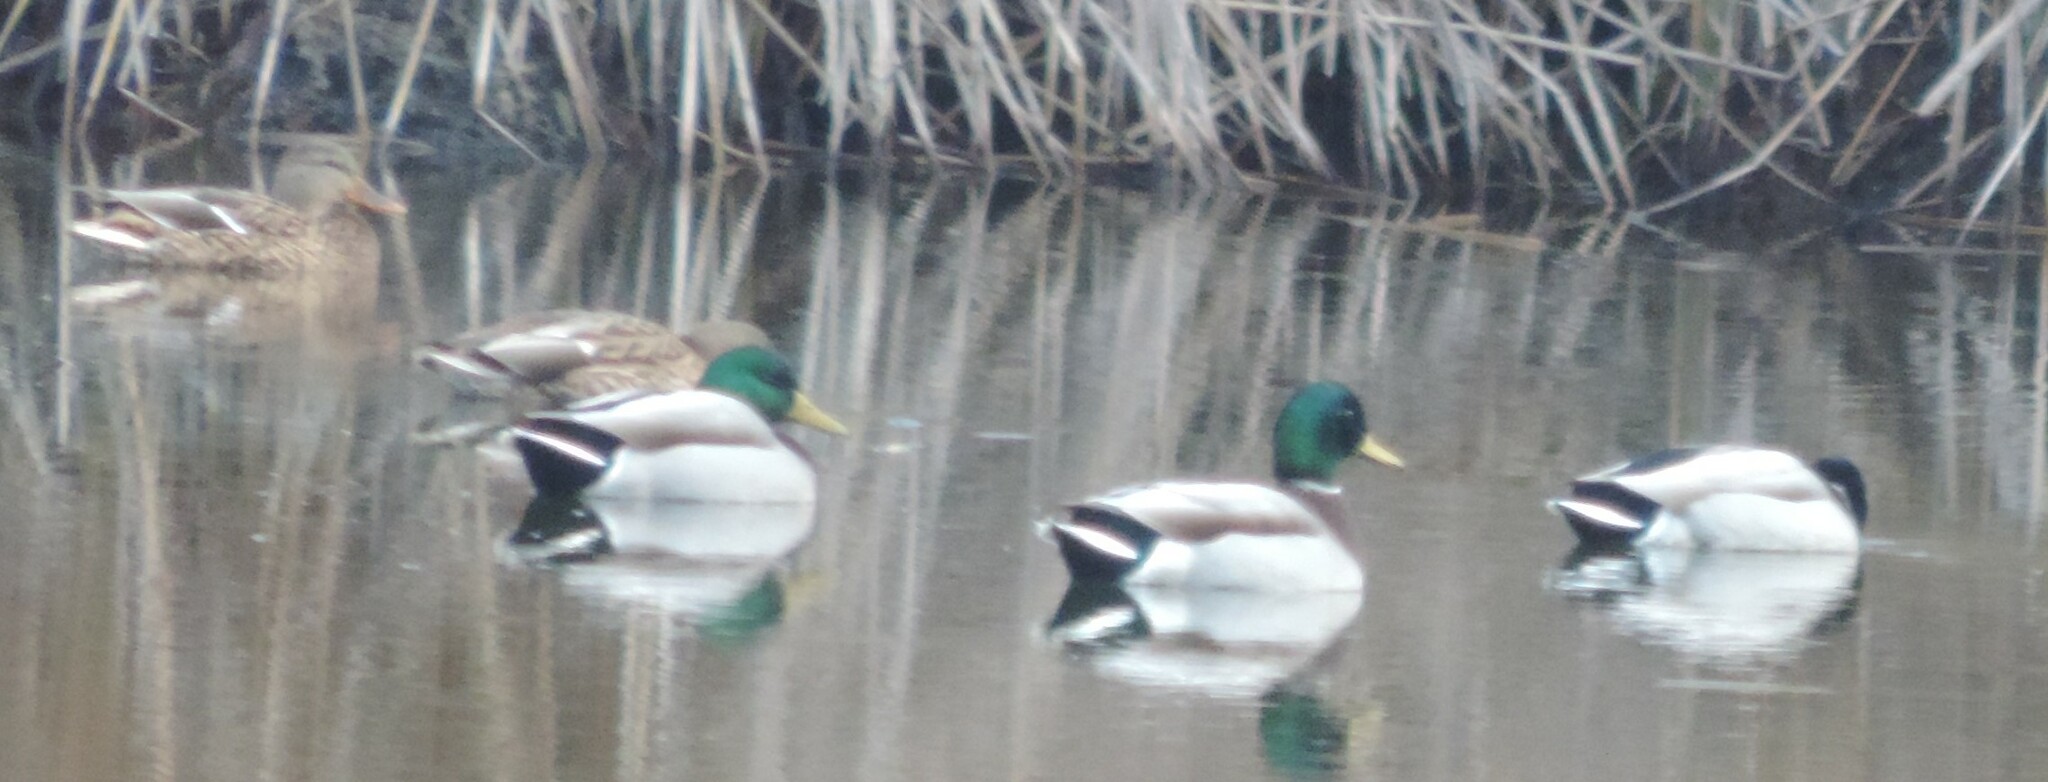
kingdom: Animalia
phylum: Chordata
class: Aves
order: Anseriformes
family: Anatidae
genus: Anas
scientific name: Anas platyrhynchos
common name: Mallard
